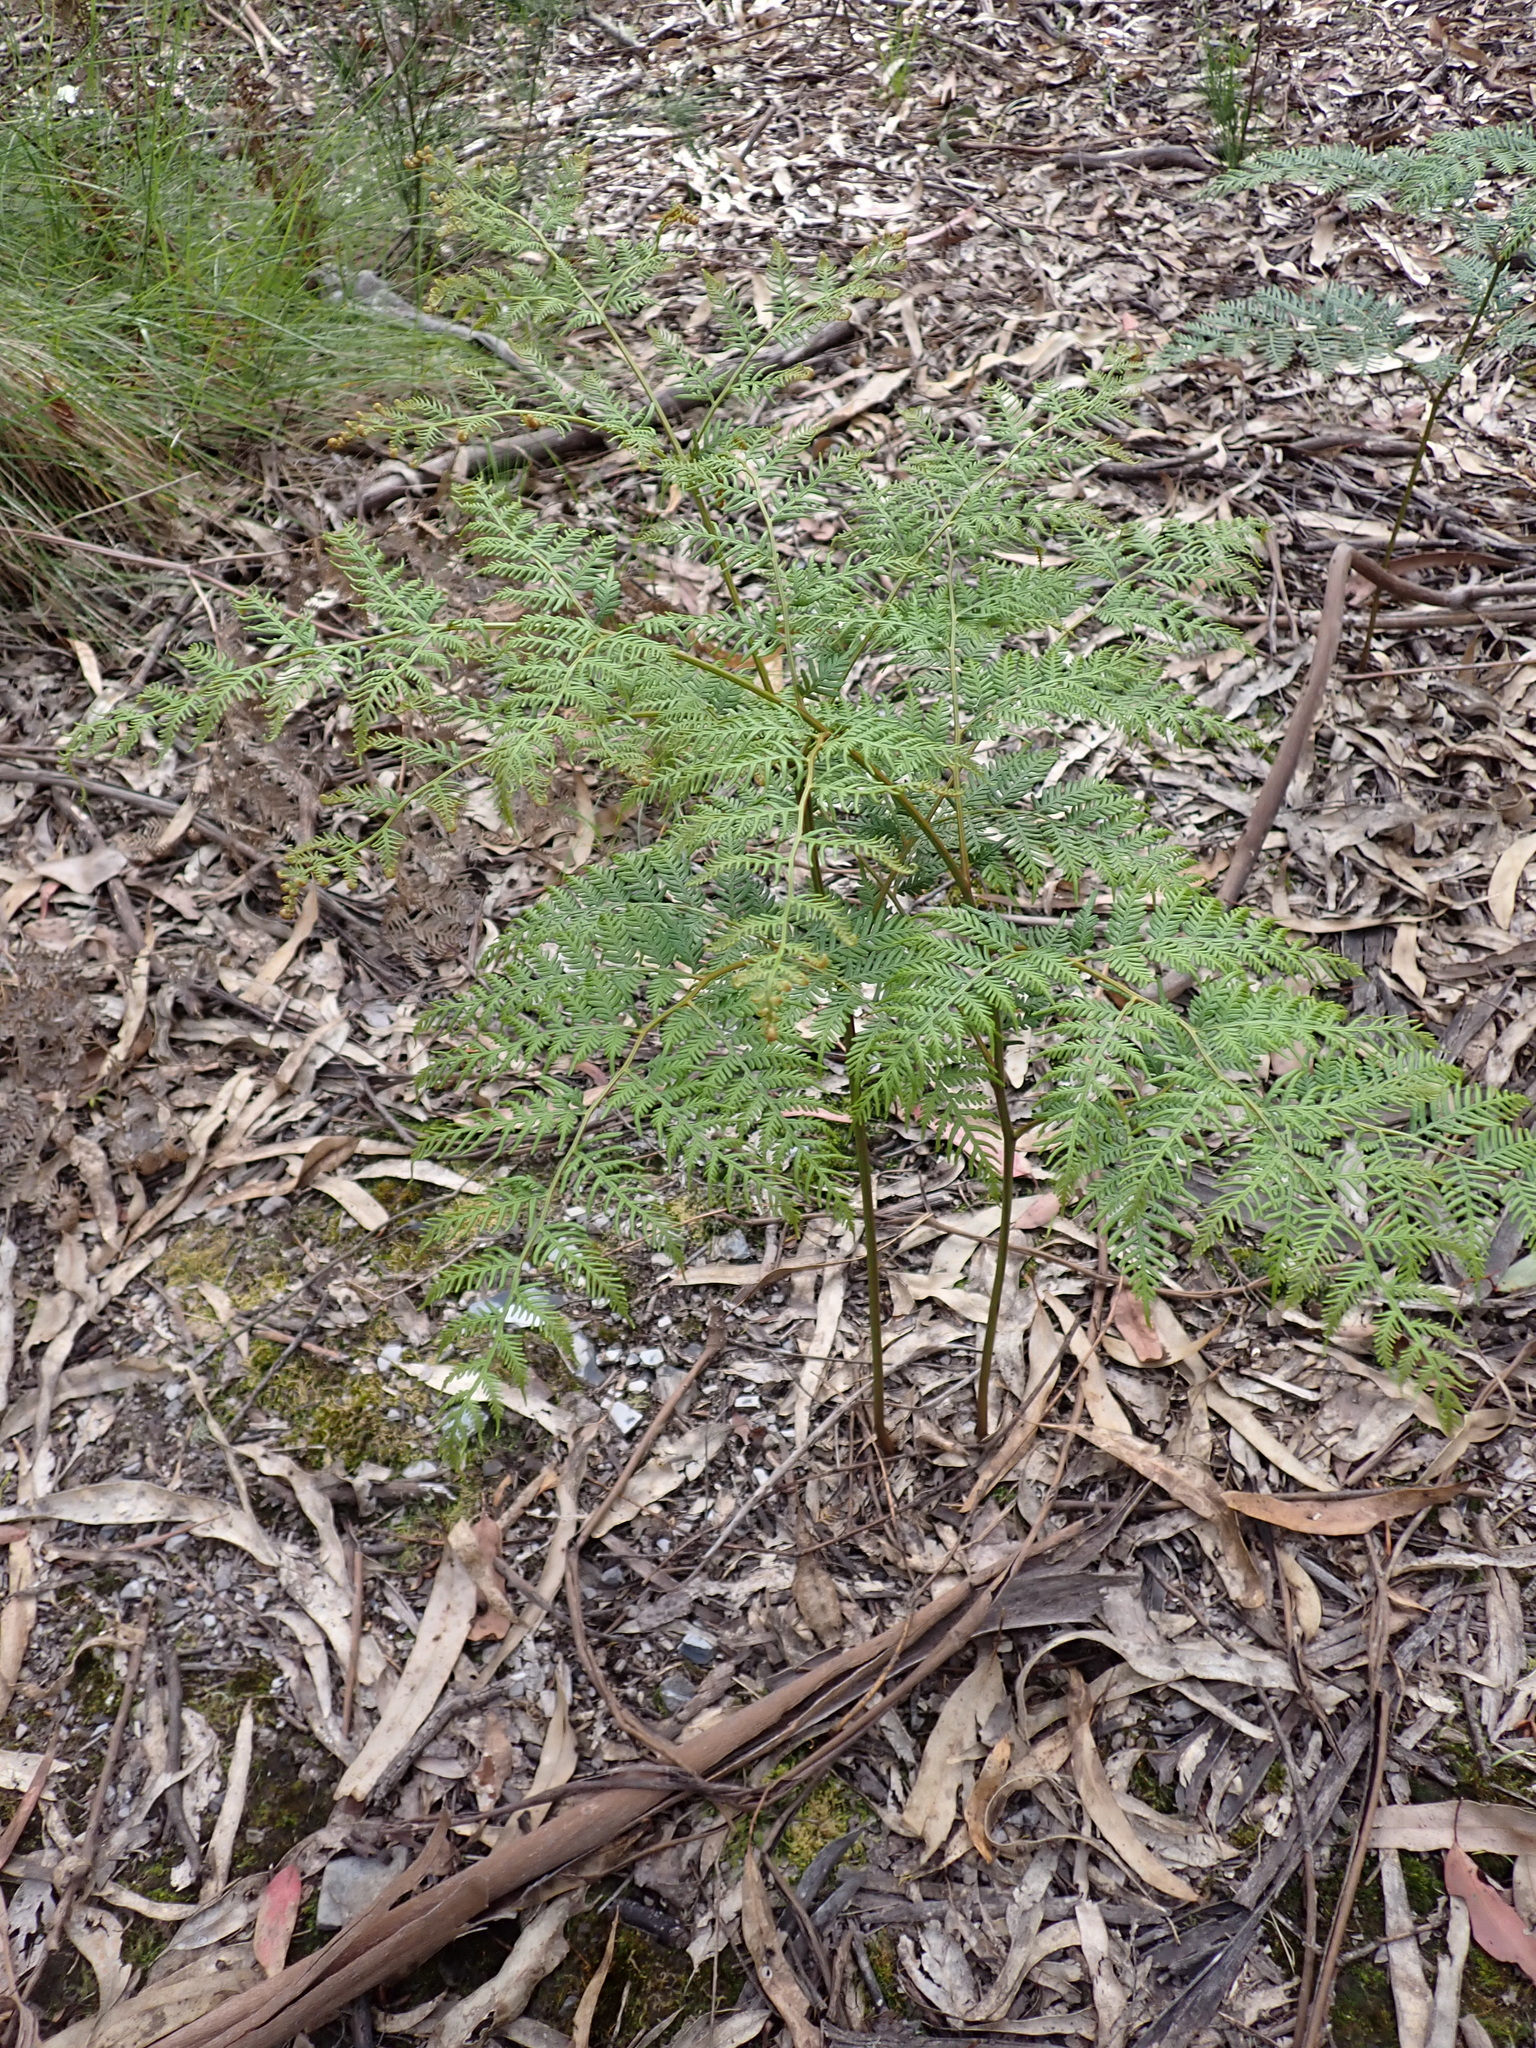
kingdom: Plantae
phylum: Tracheophyta
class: Polypodiopsida
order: Polypodiales
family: Dennstaedtiaceae
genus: Pteridium
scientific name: Pteridium esculentum
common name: Bracken fern
